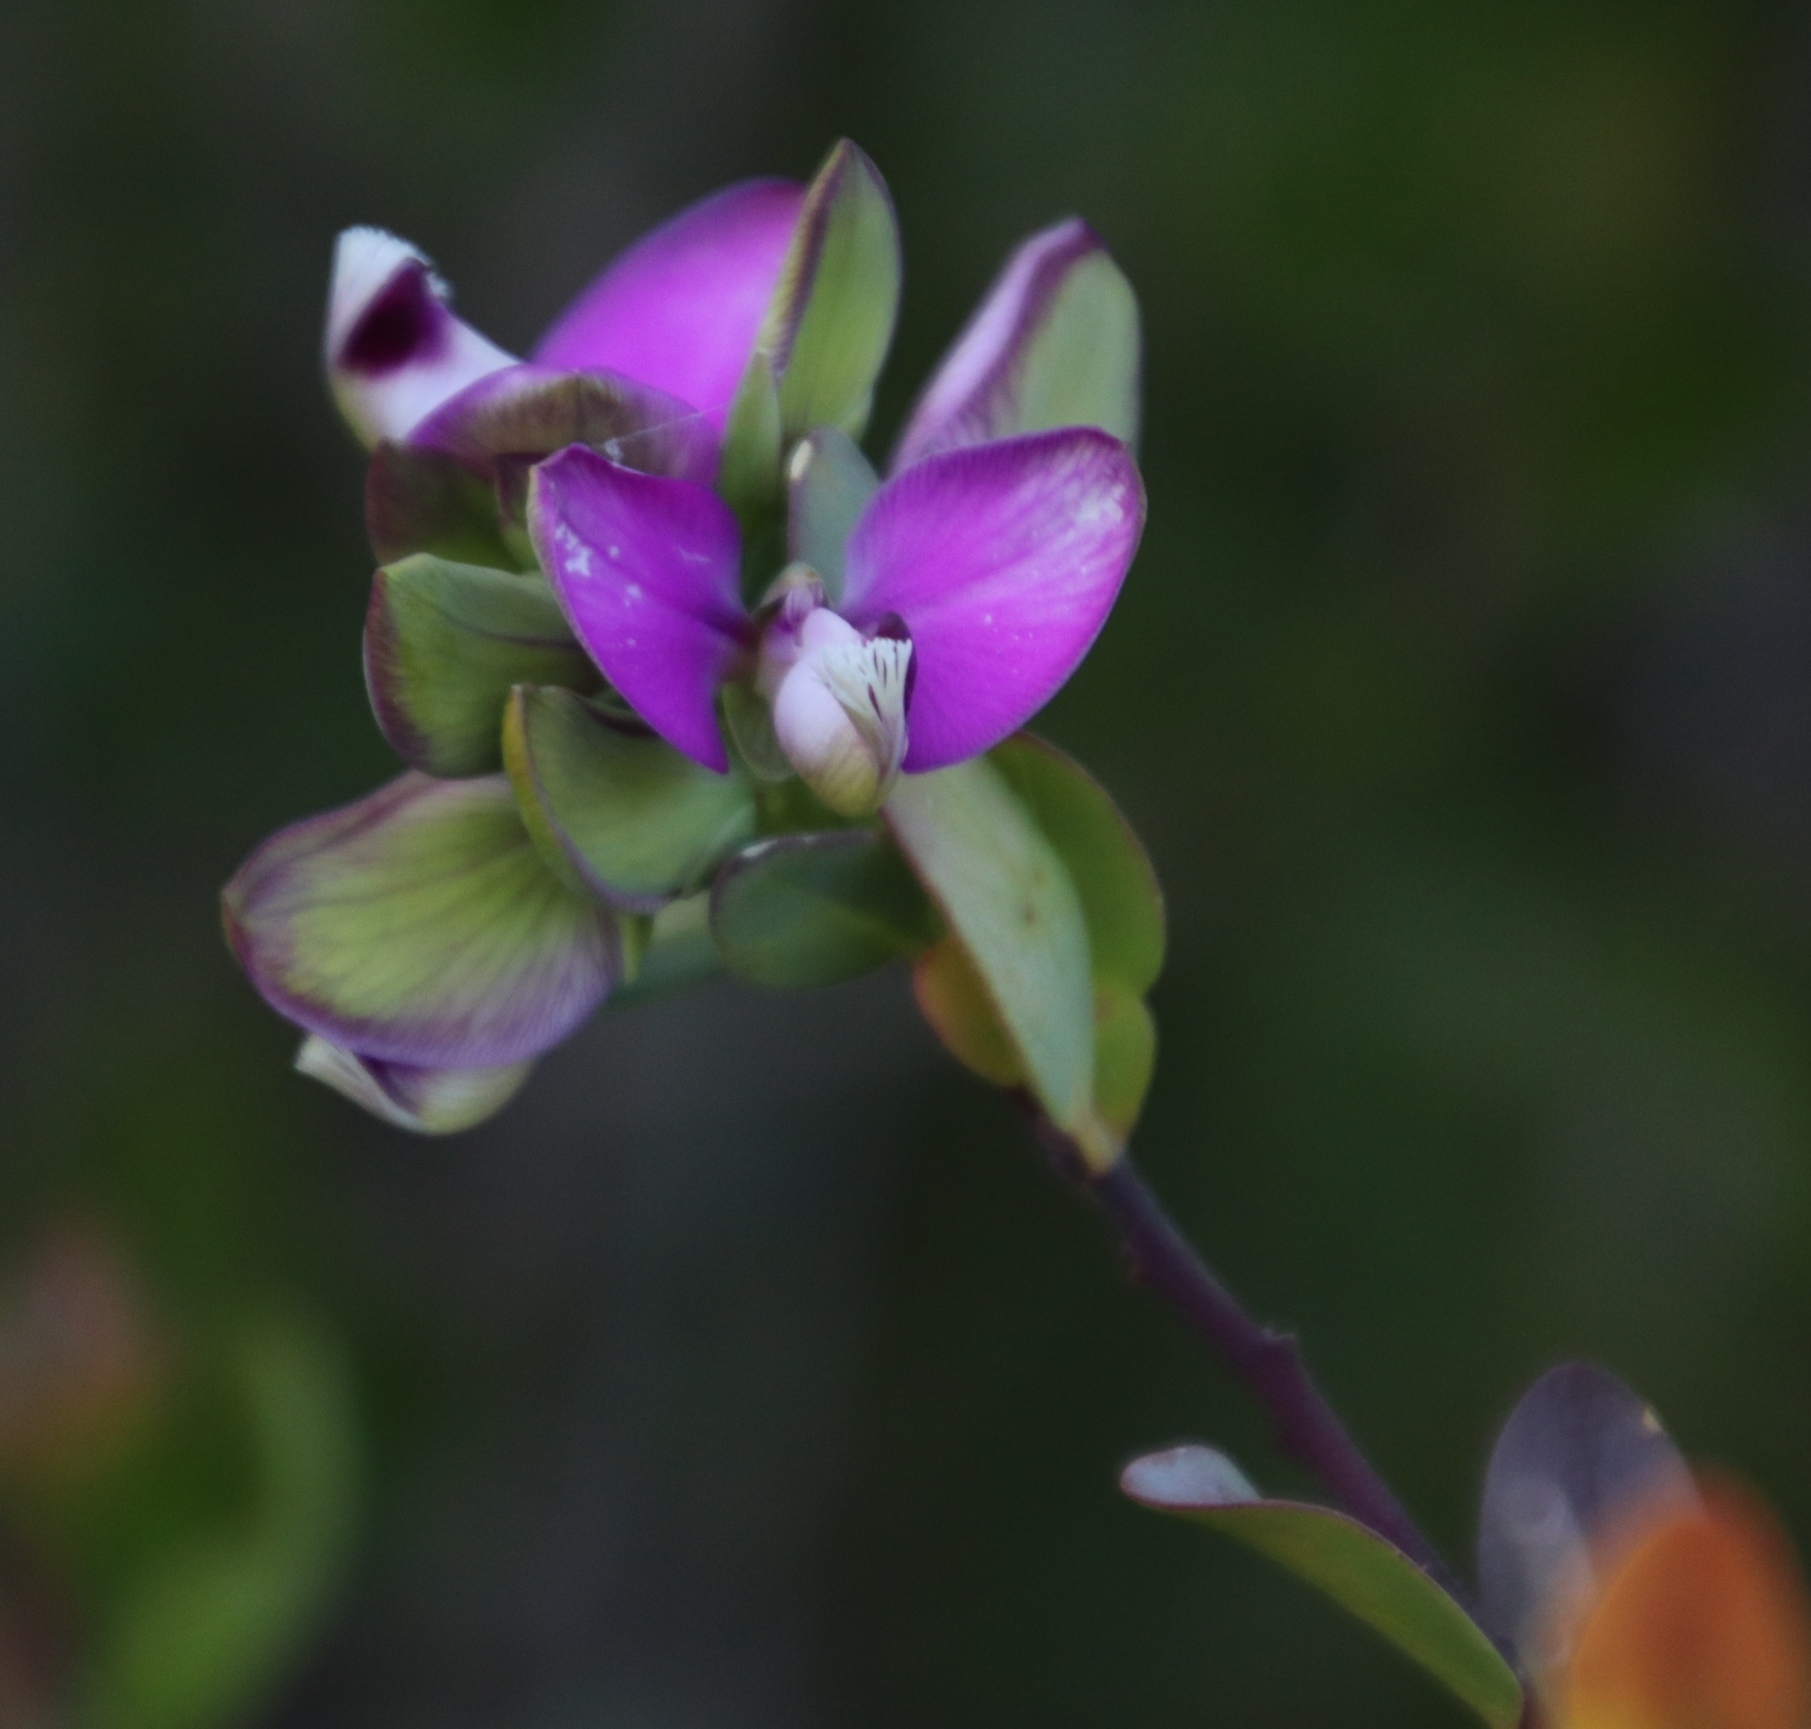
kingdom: Plantae
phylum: Tracheophyta
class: Magnoliopsida
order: Fabales
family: Polygalaceae
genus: Polygala
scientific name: Polygala myrtifolia
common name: Myrtle-leaf milkwort
